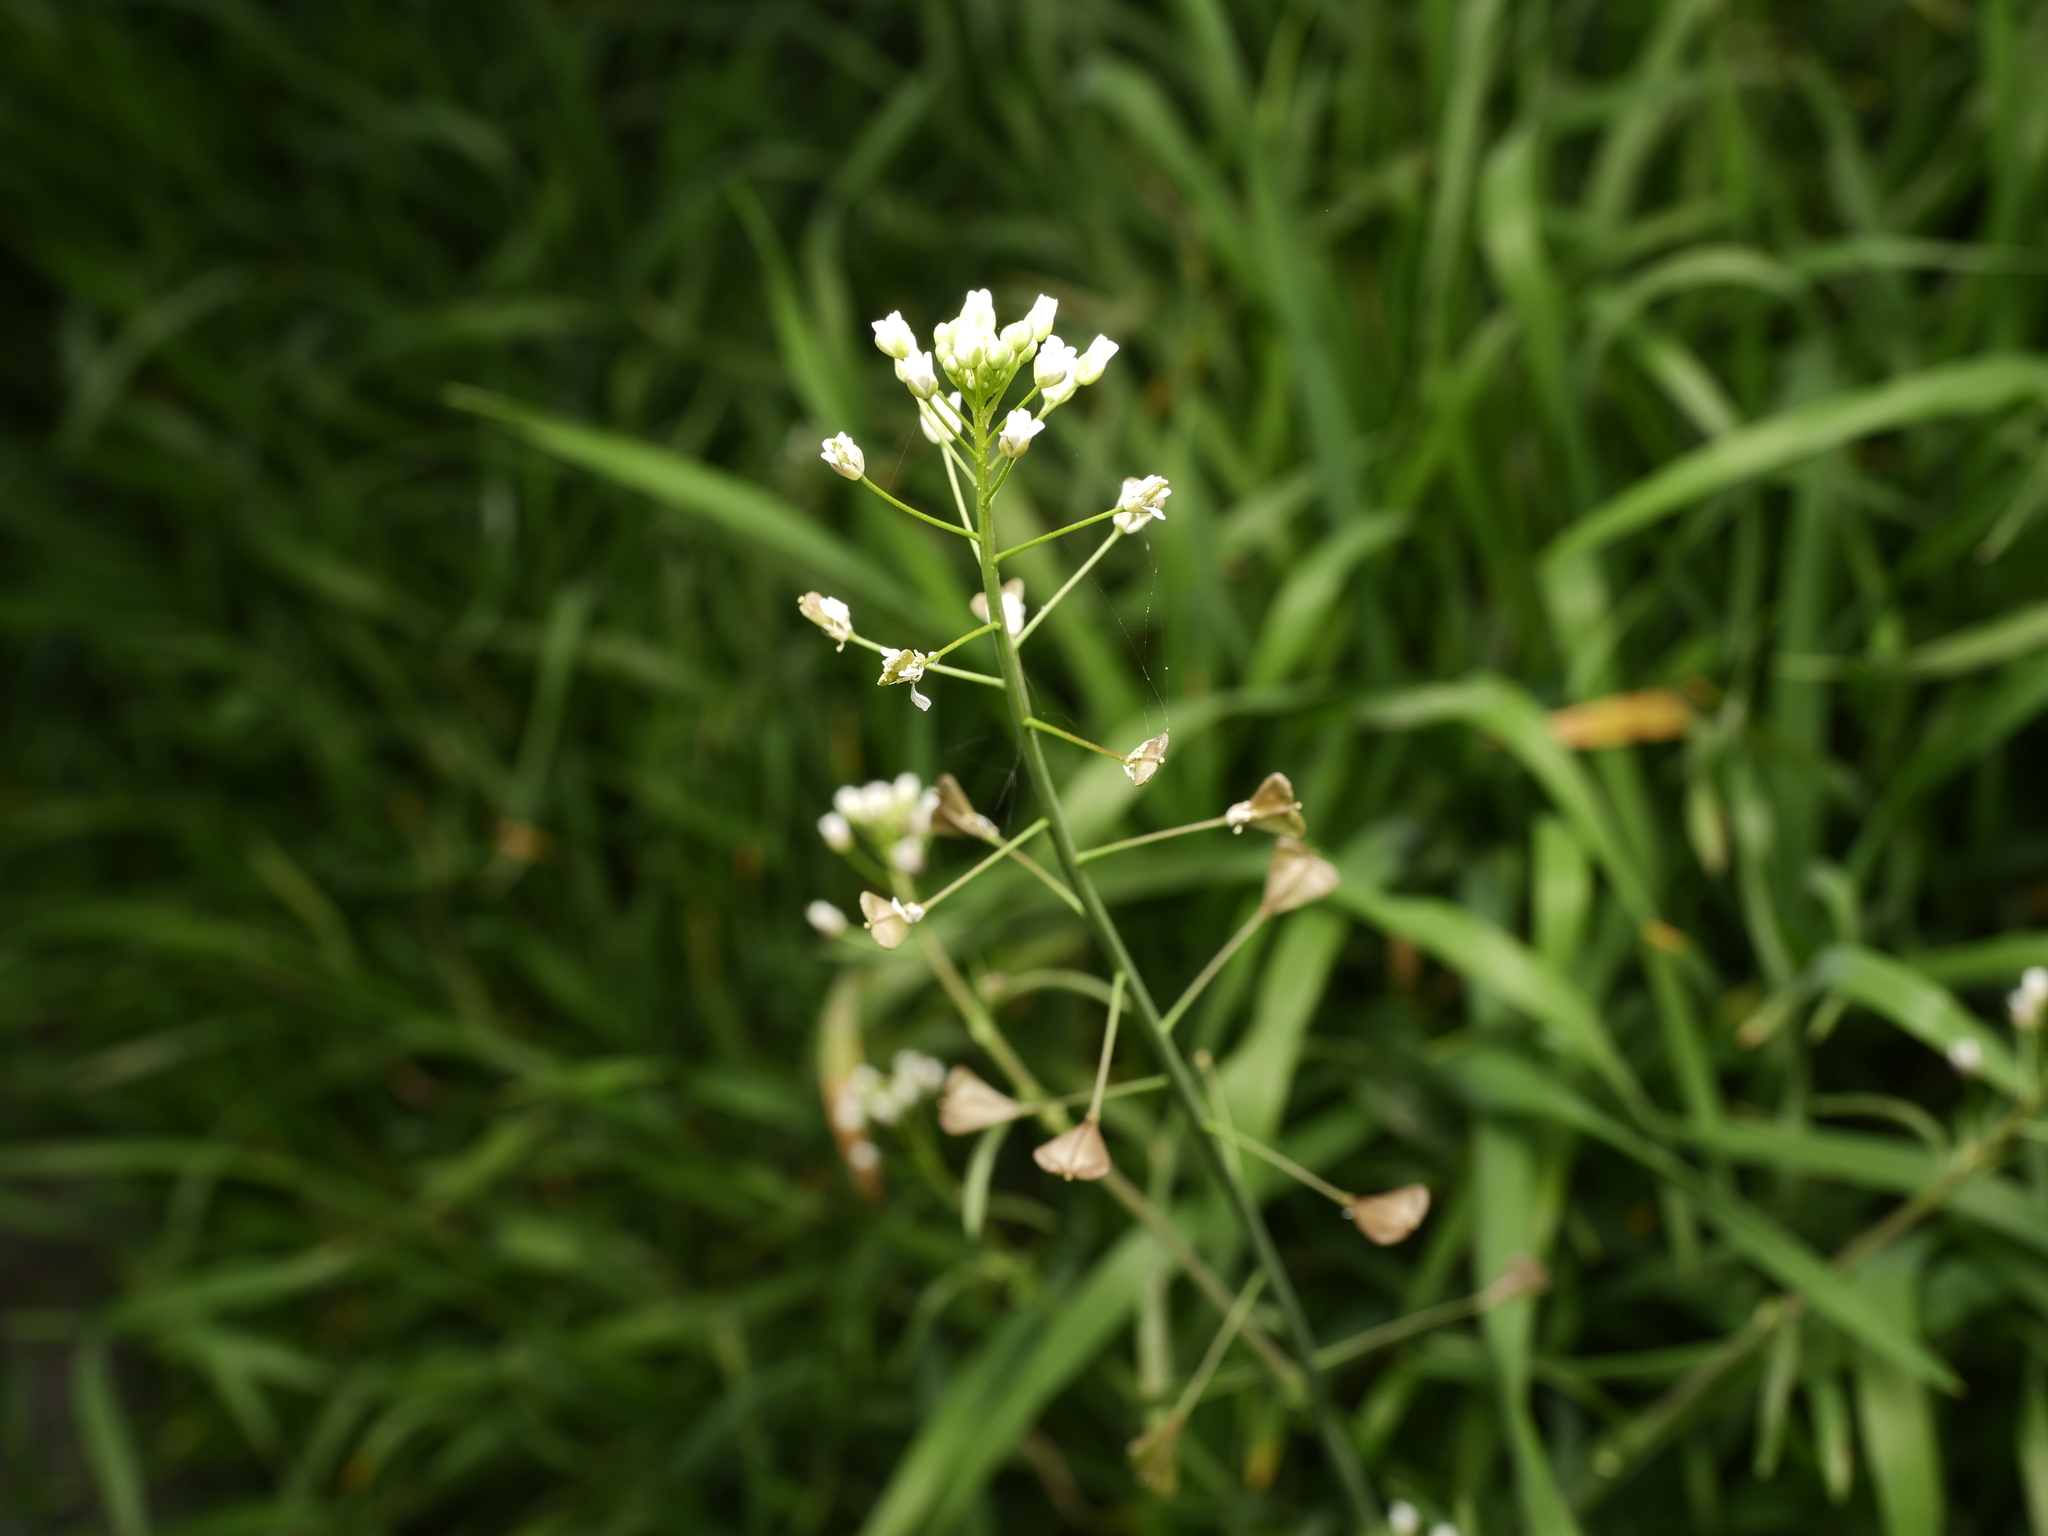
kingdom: Plantae
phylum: Tracheophyta
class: Magnoliopsida
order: Brassicales
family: Brassicaceae
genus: Capsella
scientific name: Capsella bursa-pastoris
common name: Shepherd's purse
